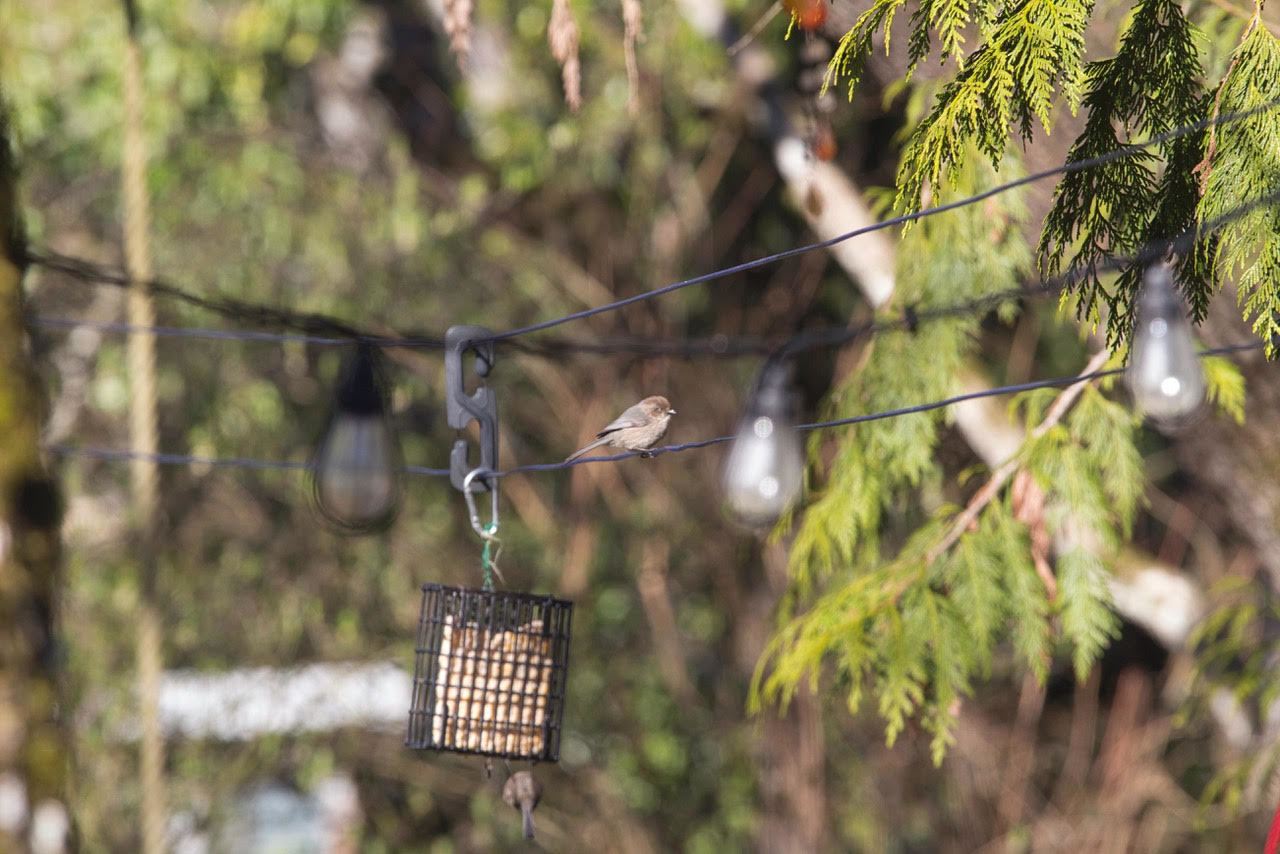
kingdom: Animalia
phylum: Chordata
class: Aves
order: Passeriformes
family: Aegithalidae
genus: Psaltriparus
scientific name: Psaltriparus minimus
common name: American bushtit
